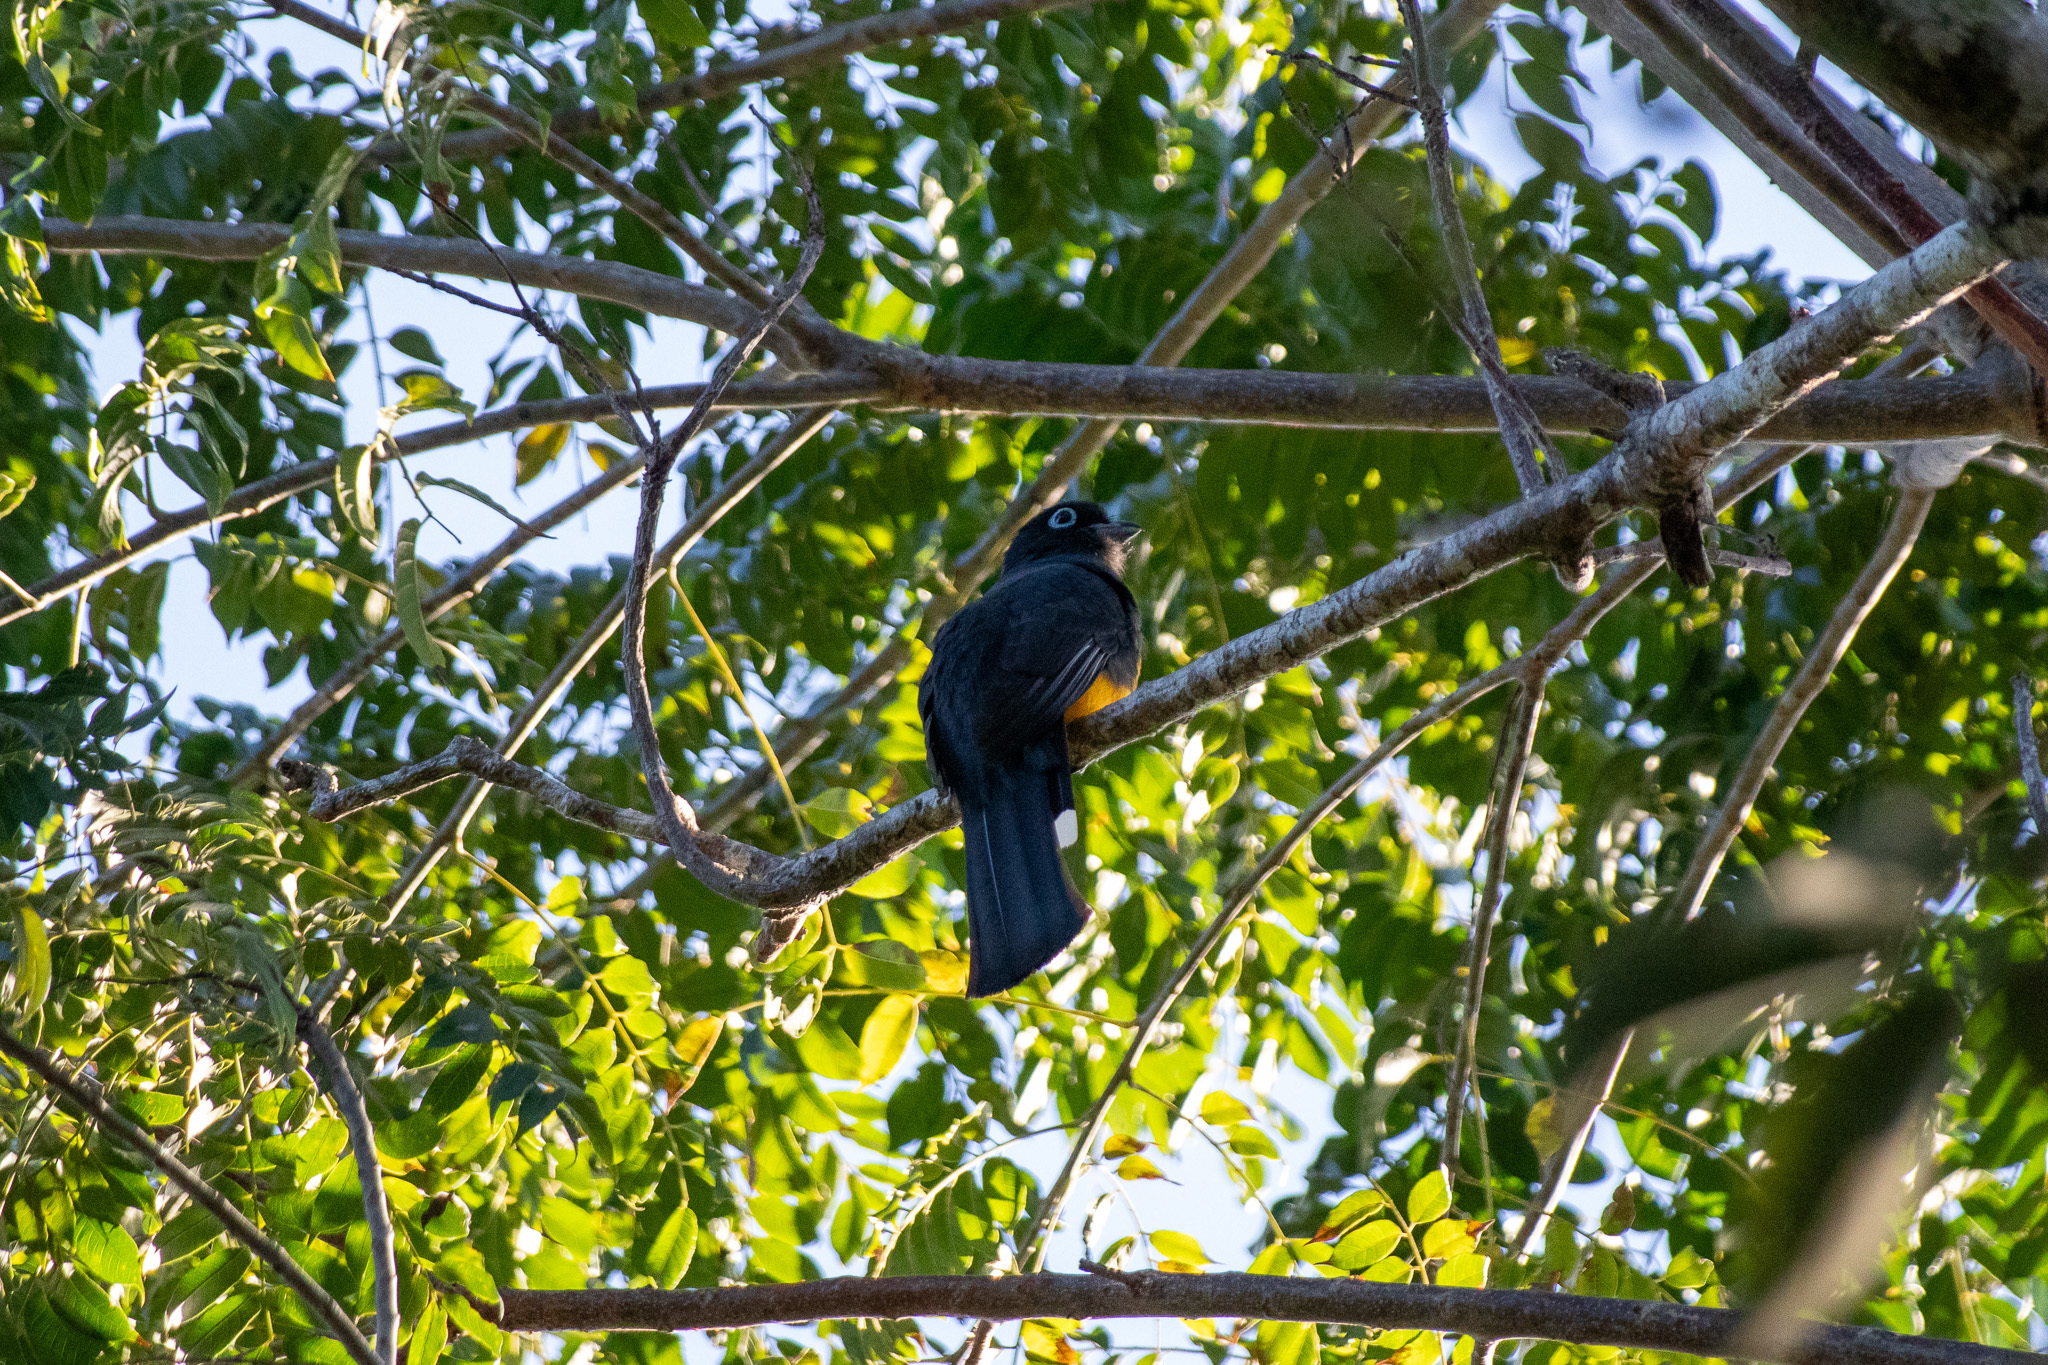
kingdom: Animalia
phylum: Chordata
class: Aves
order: Trogoniformes
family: Trogonidae
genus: Trogon
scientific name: Trogon melanocephalus
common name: Black-headed trogon
